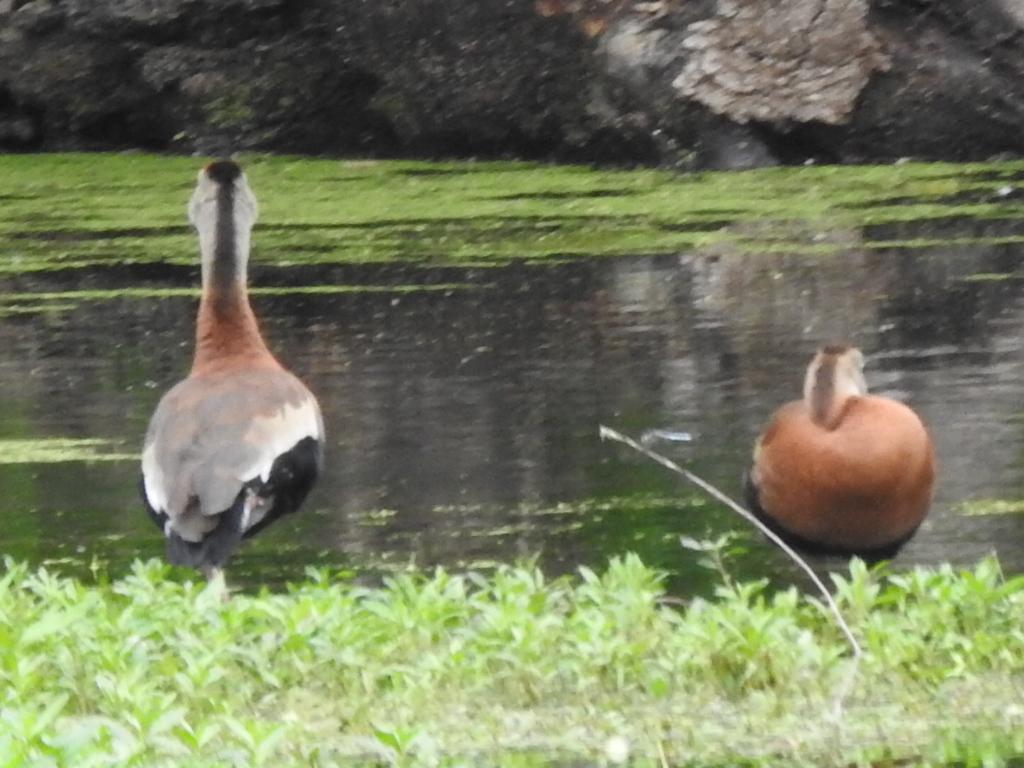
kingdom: Animalia
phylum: Chordata
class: Aves
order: Anseriformes
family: Anatidae
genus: Dendrocygna
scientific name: Dendrocygna autumnalis
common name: Black-bellied whistling duck
